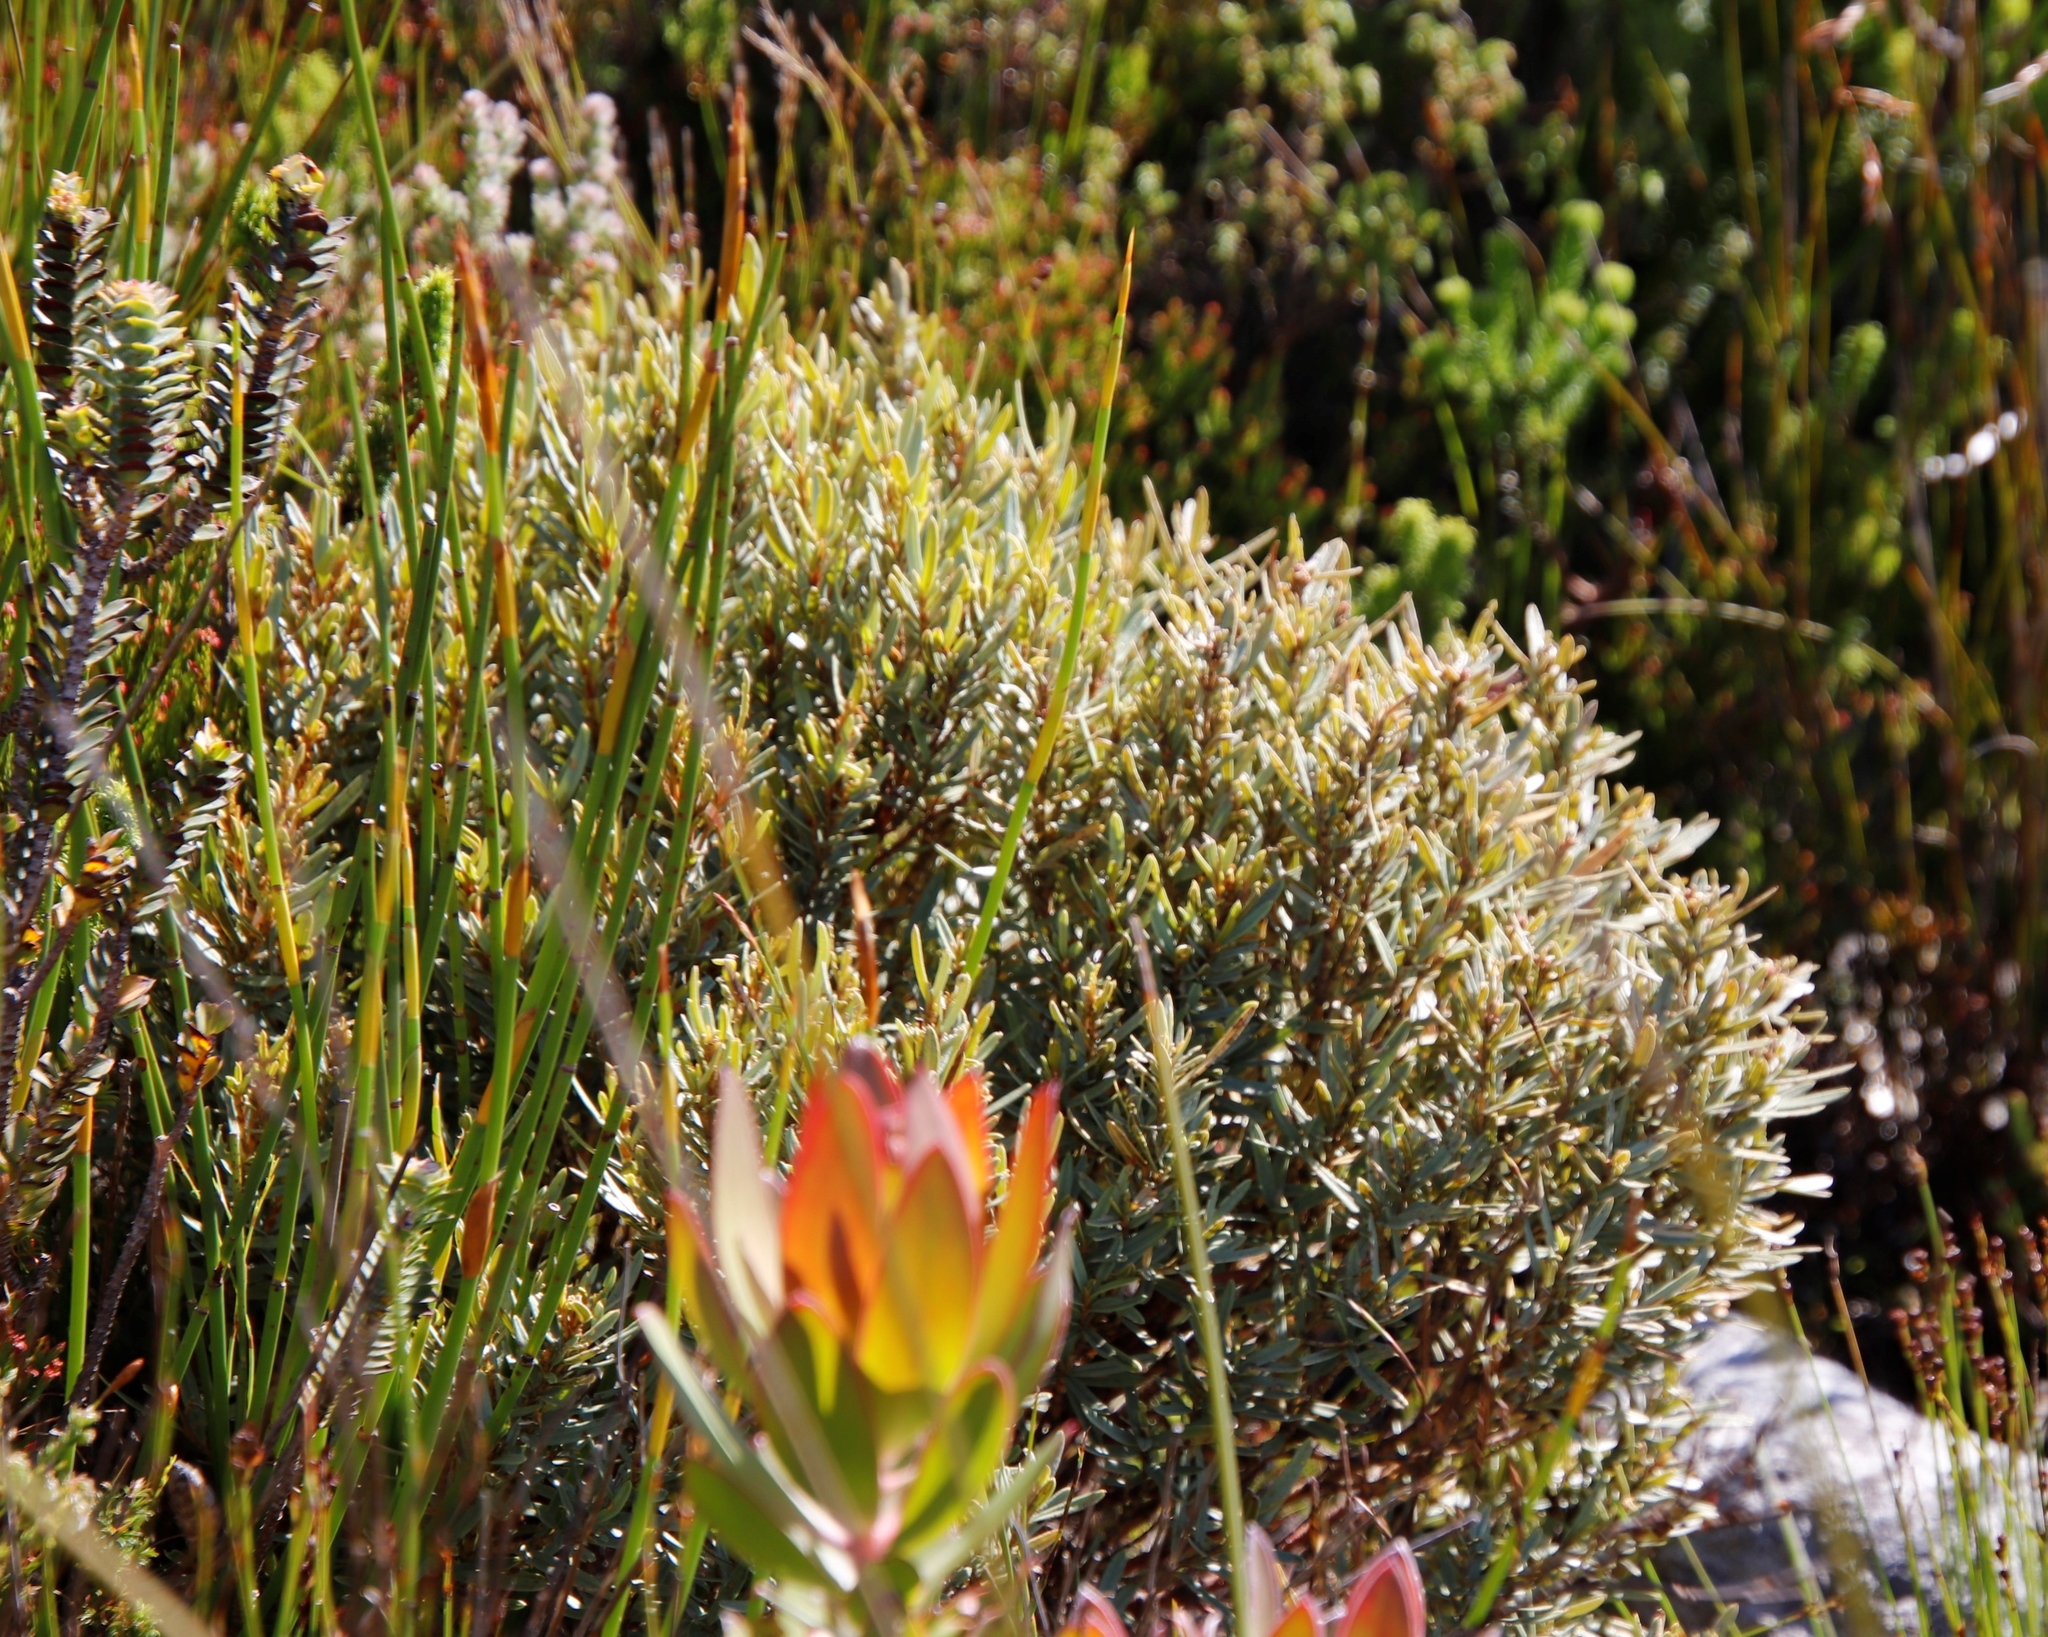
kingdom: Plantae
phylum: Tracheophyta
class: Magnoliopsida
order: Cornales
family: Grubbiaceae
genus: Grubbia
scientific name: Grubbia tomentosa
